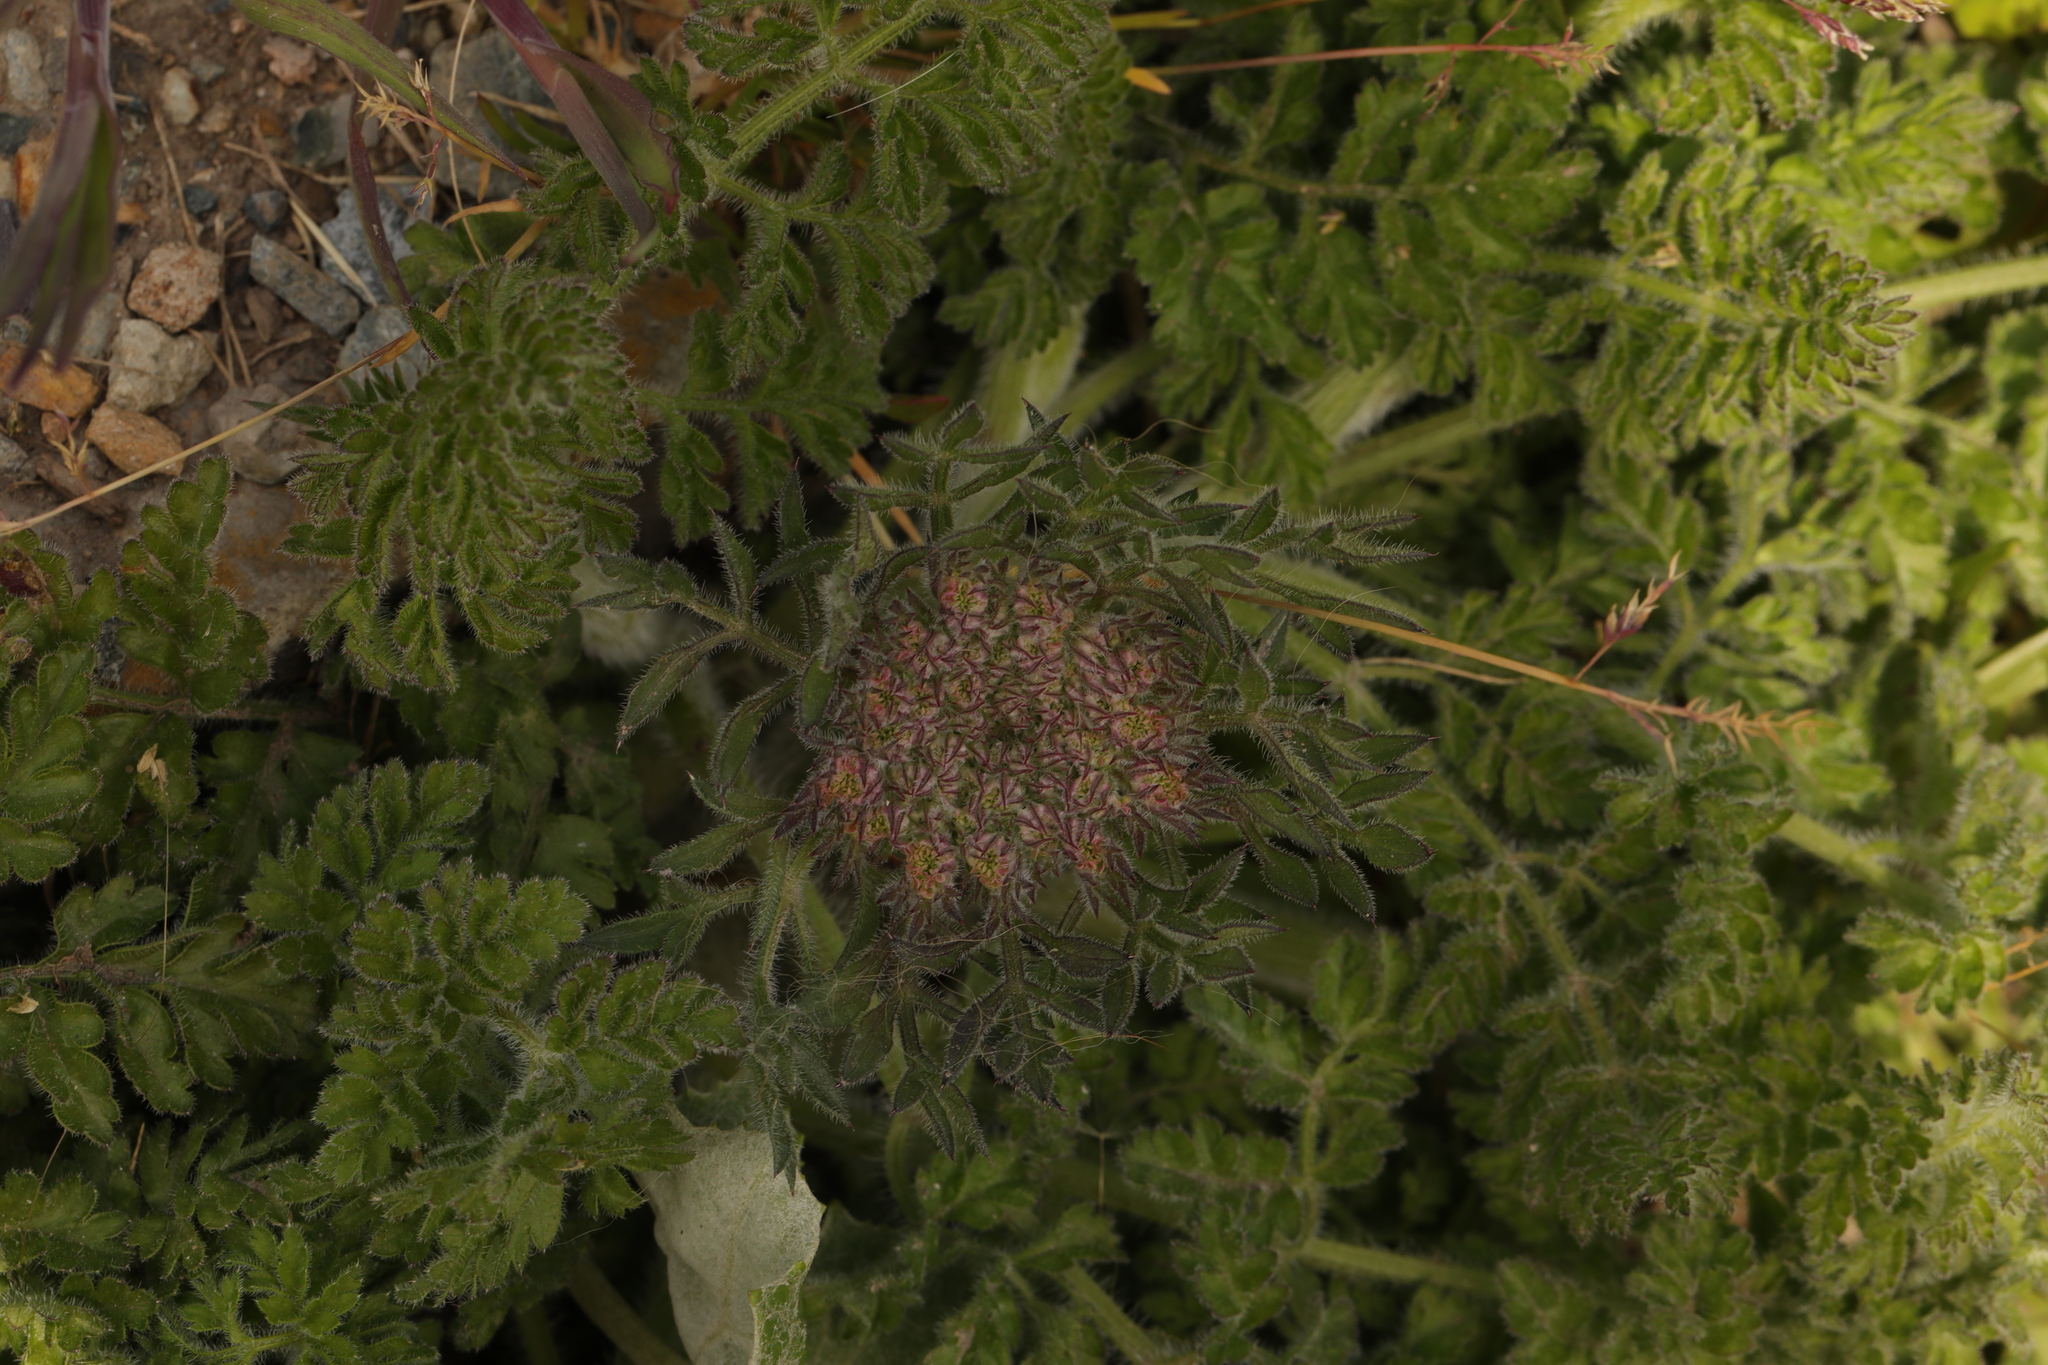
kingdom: Plantae
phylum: Tracheophyta
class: Magnoliopsida
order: Apiales
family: Apiaceae
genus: Daucus
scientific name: Daucus carota
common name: Wild carrot
